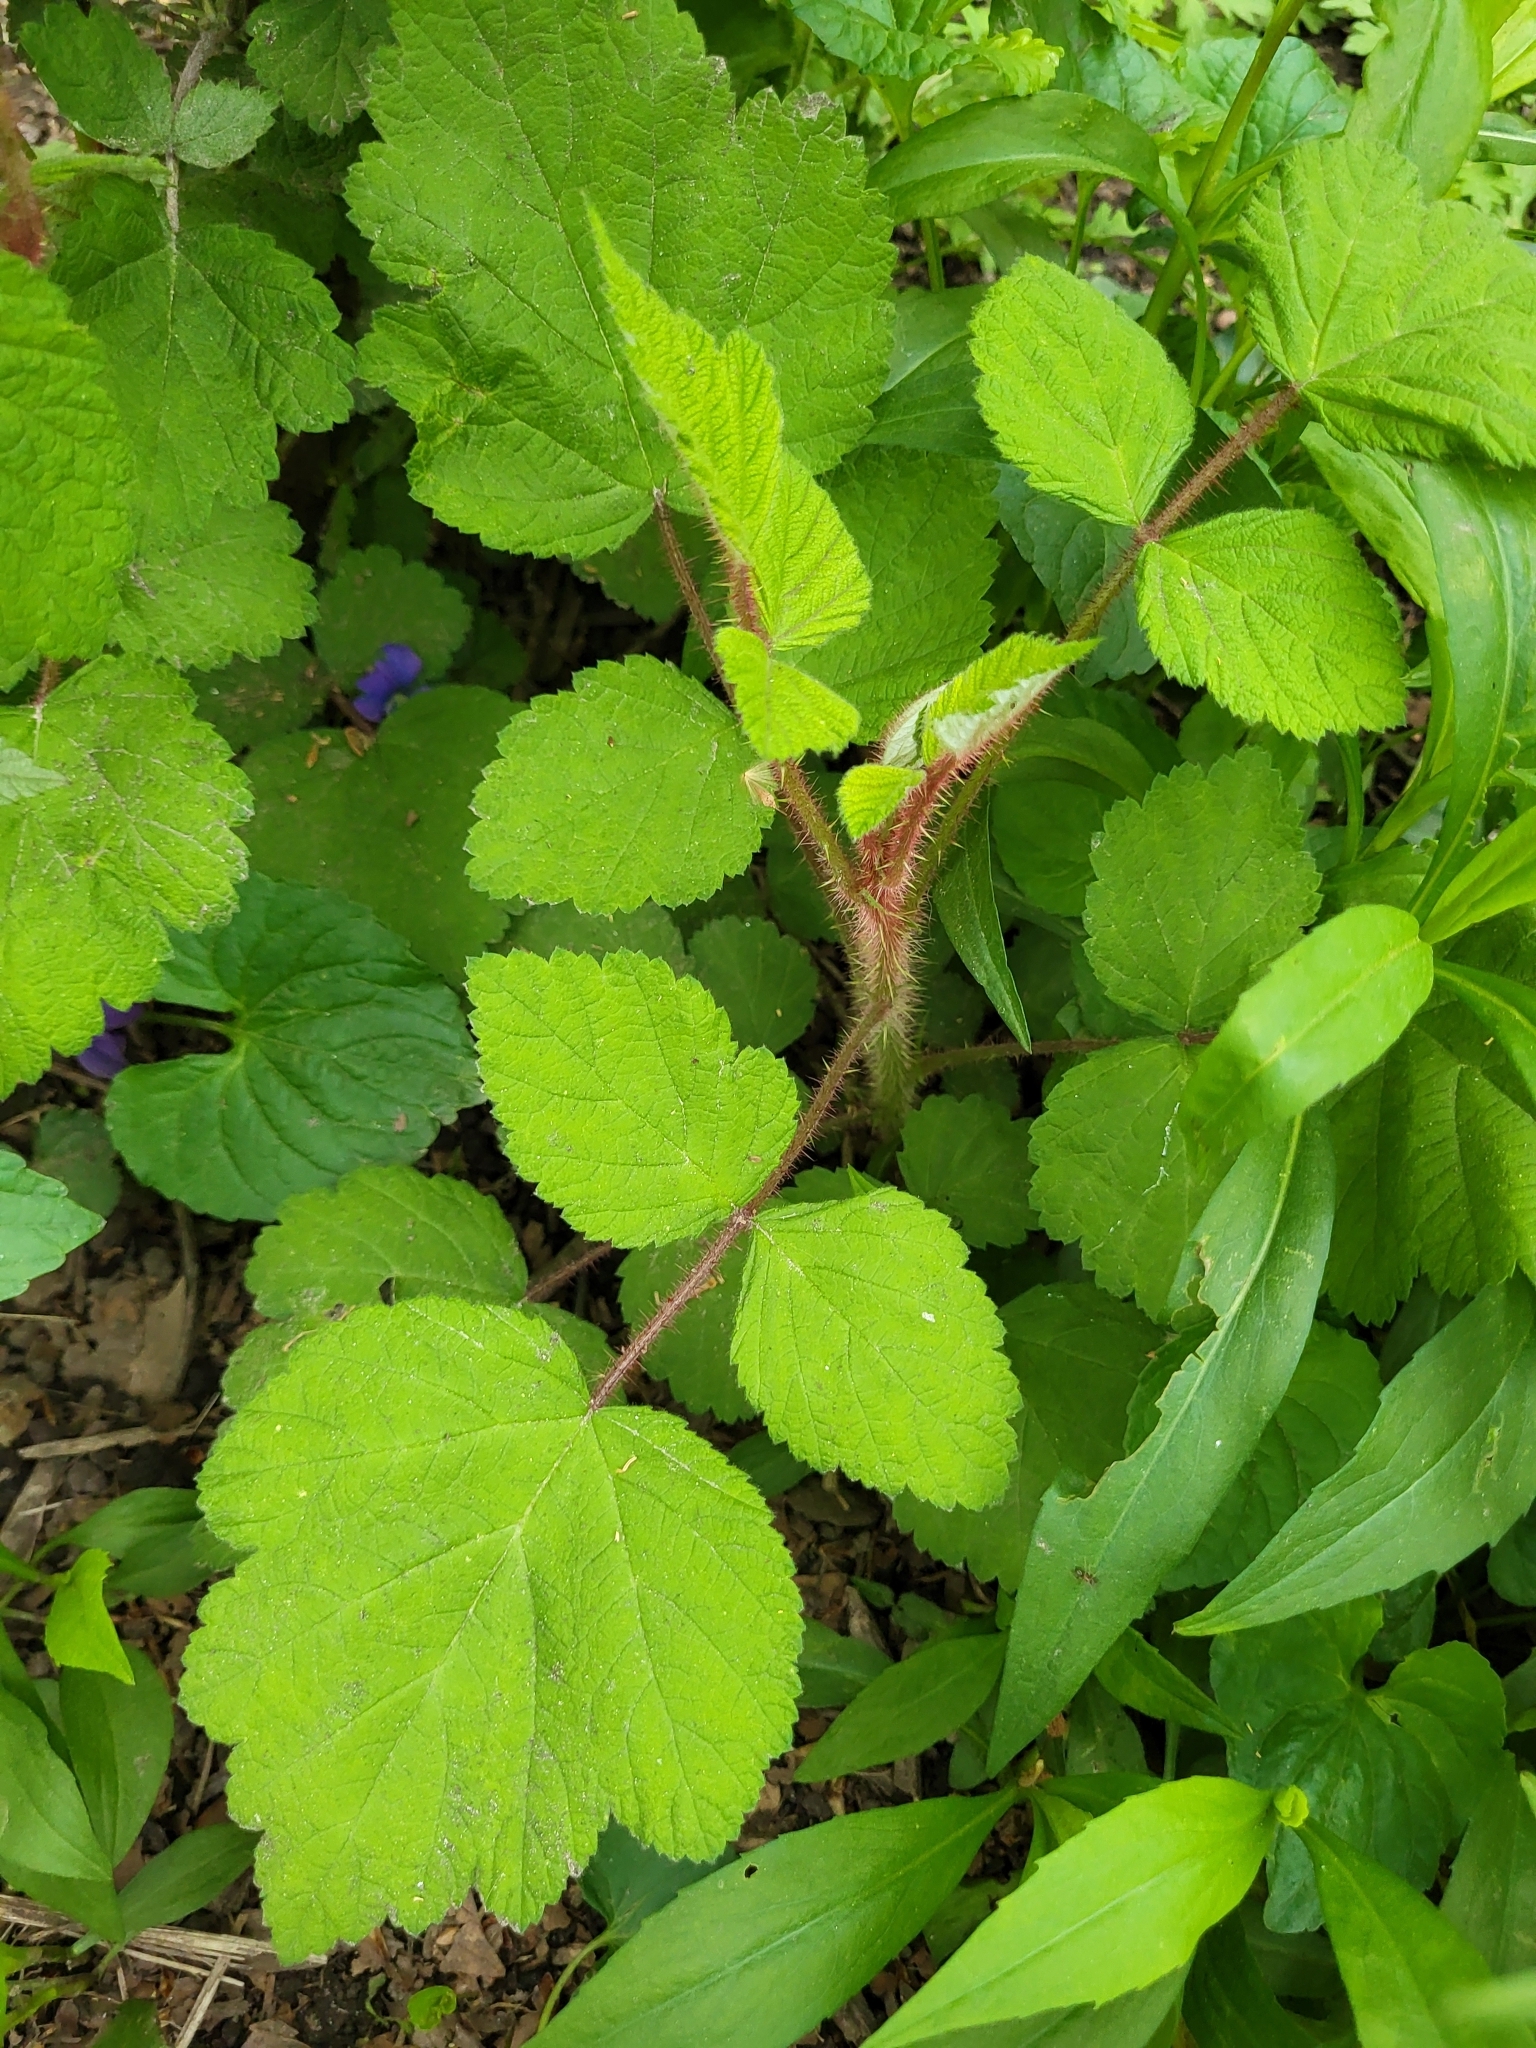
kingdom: Plantae
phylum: Tracheophyta
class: Magnoliopsida
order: Rosales
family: Rosaceae
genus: Rubus
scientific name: Rubus phoenicolasius
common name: Japanese wineberry
